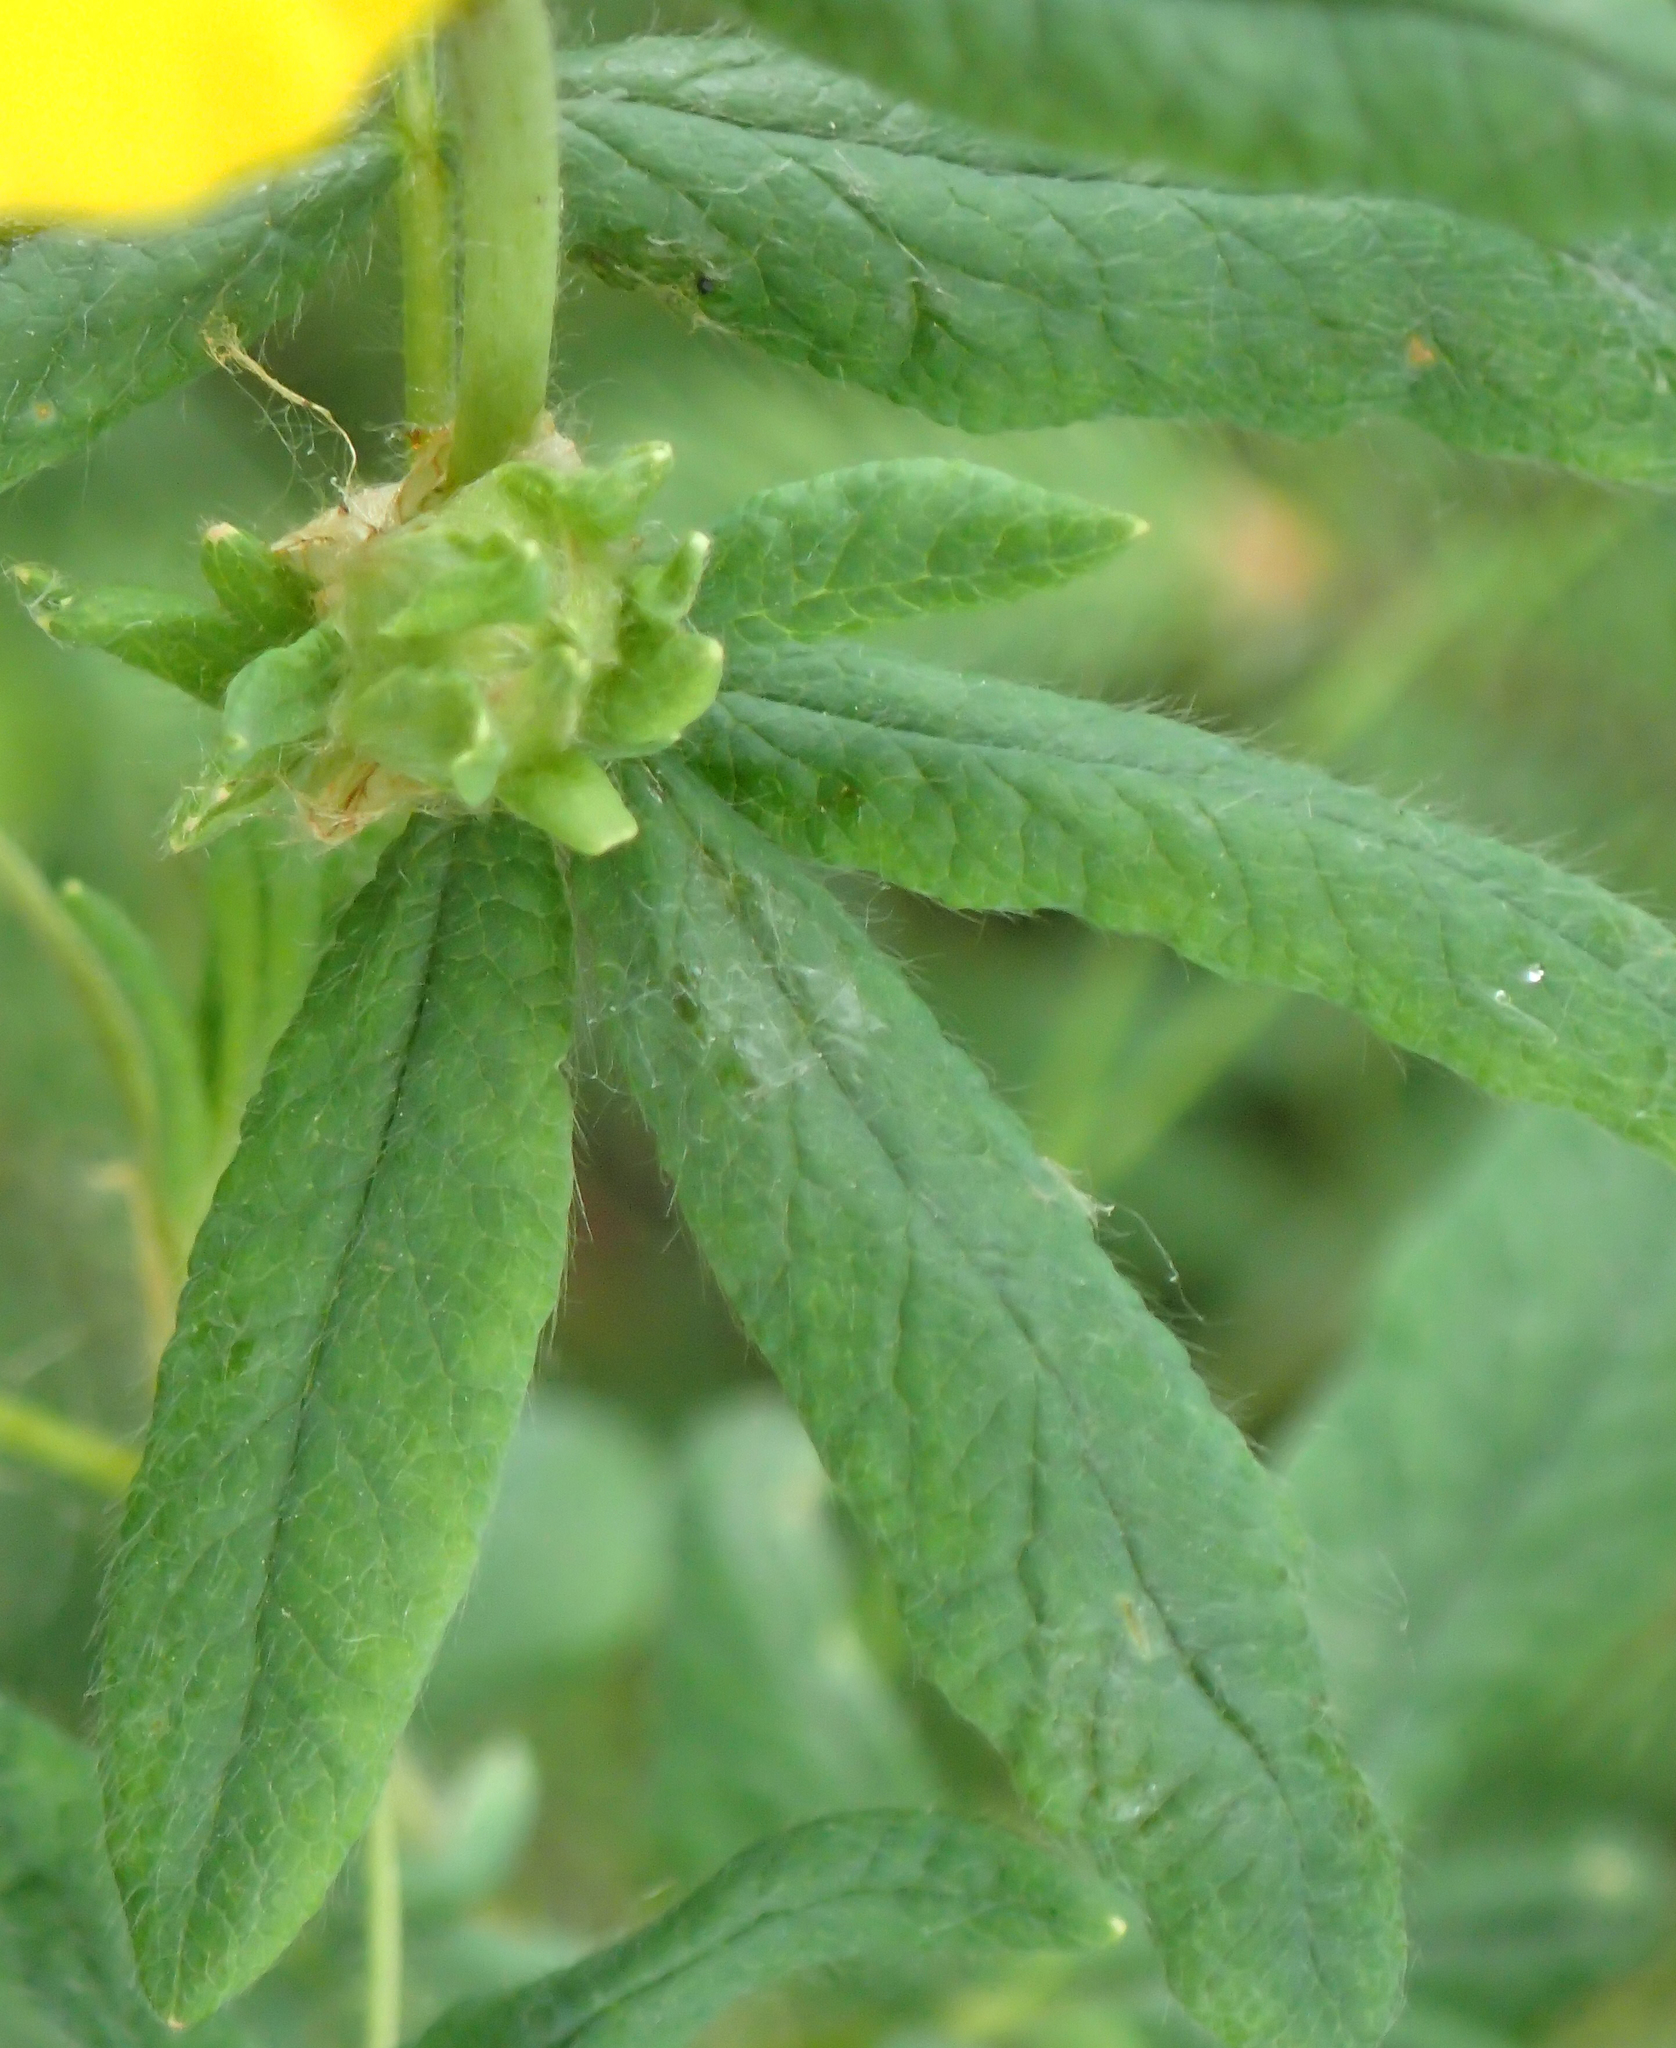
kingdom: Plantae
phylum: Tracheophyta
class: Magnoliopsida
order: Rosales
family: Rosaceae
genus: Dasiphora
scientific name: Dasiphora fruticosa
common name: Shrubby cinquefoil
